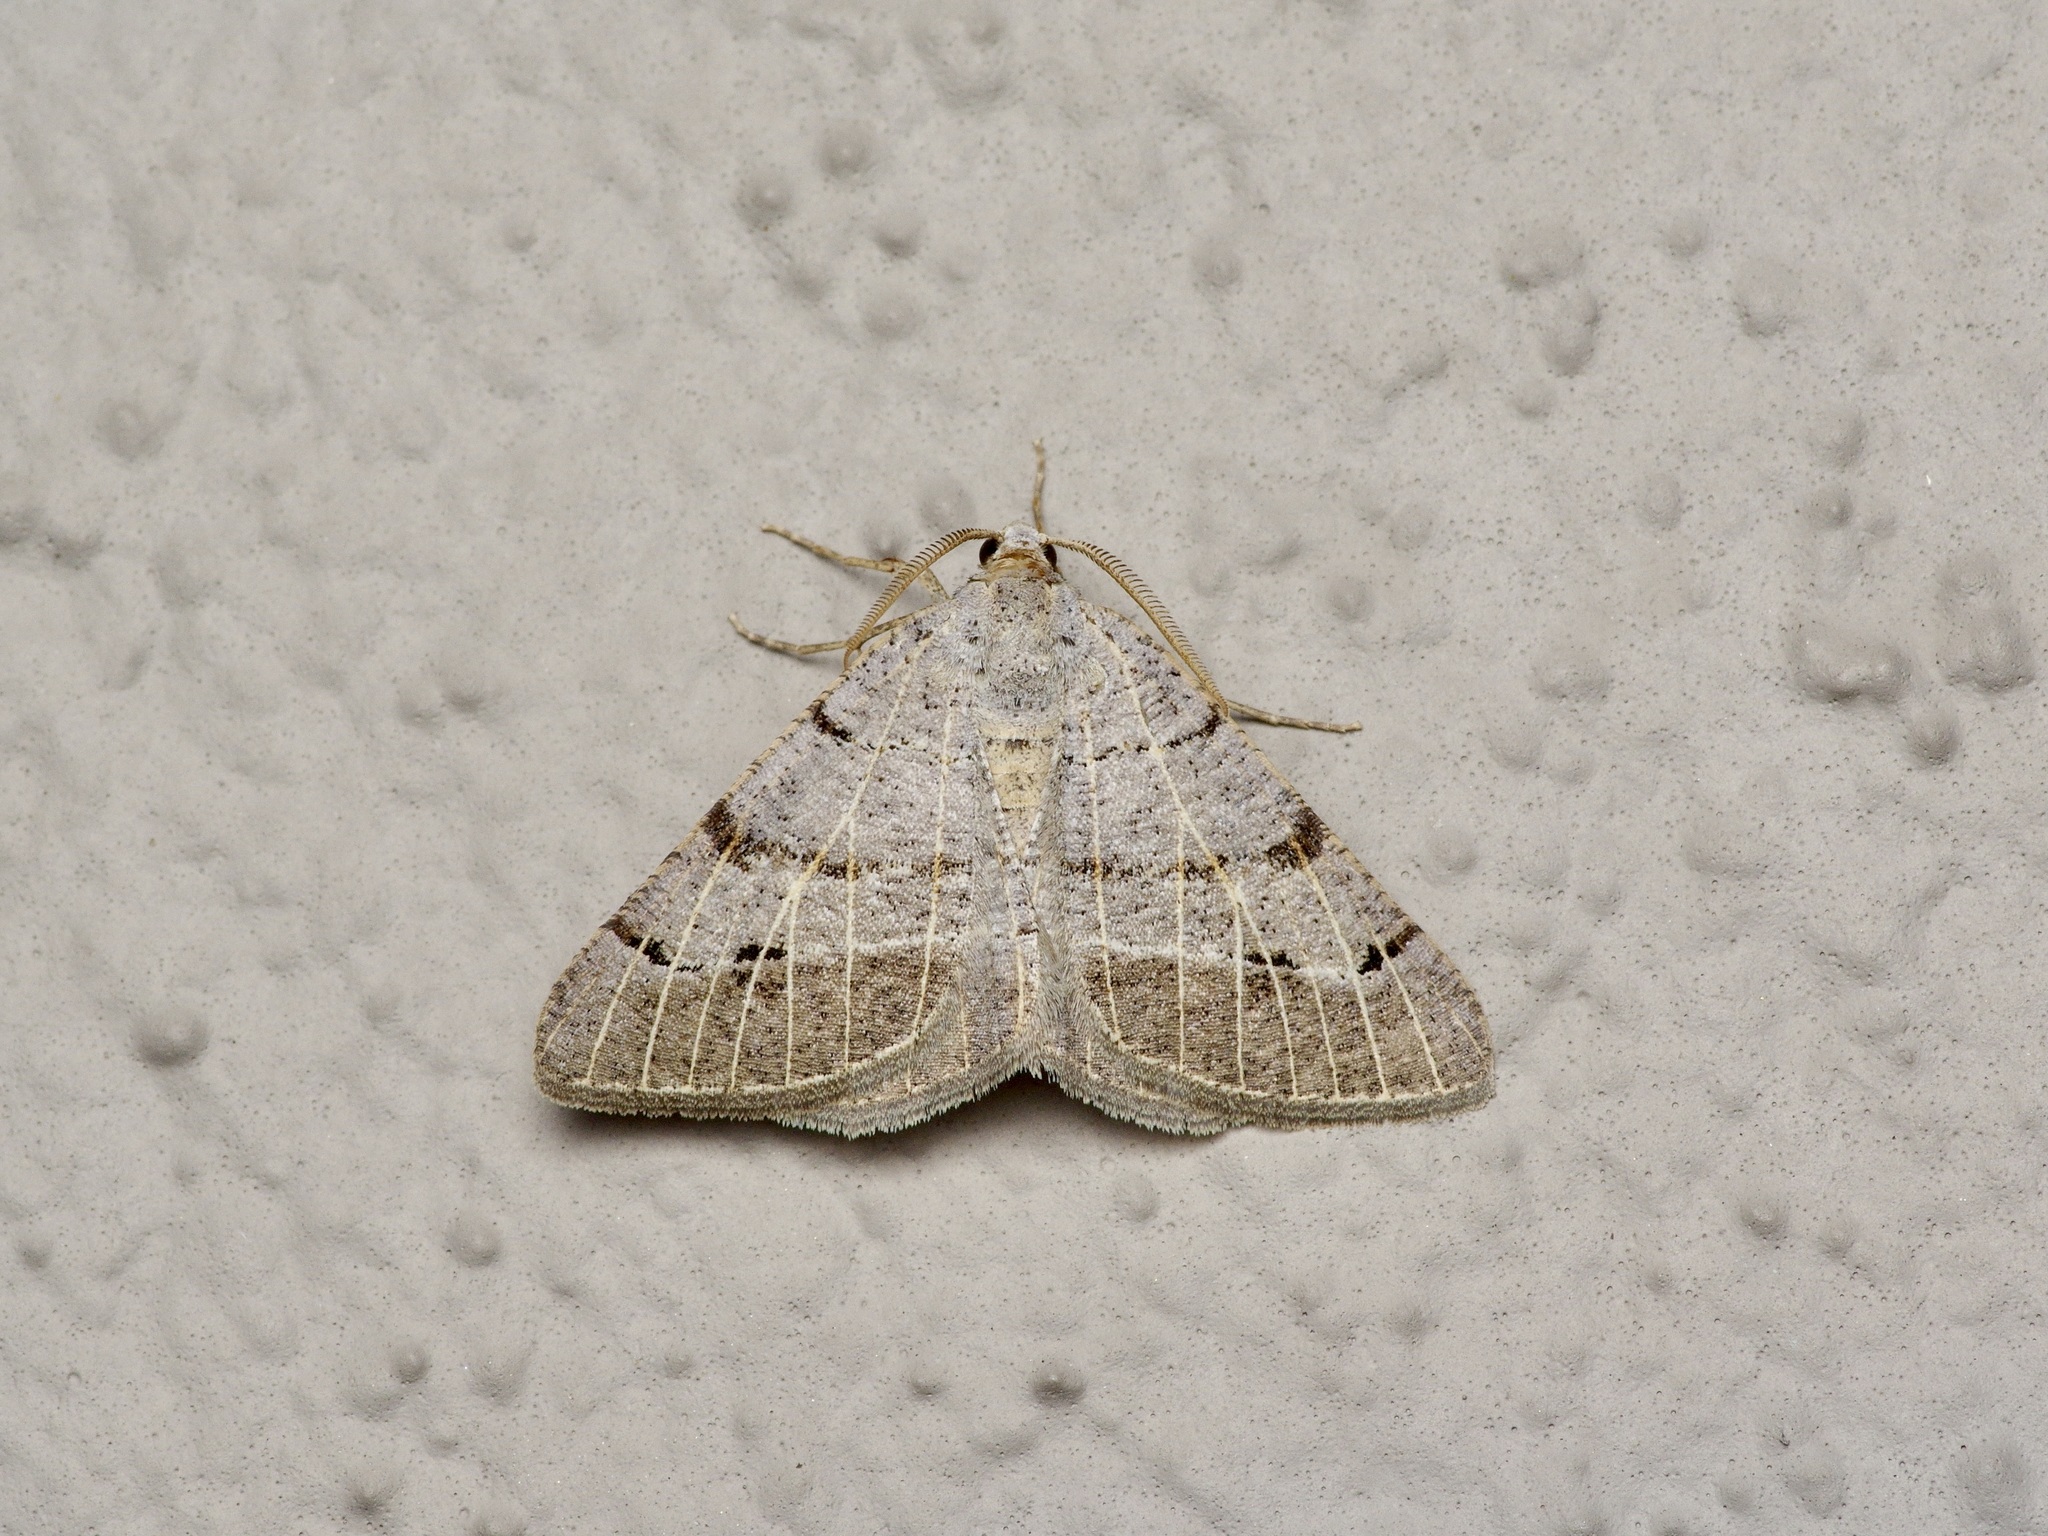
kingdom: Animalia
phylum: Arthropoda
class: Insecta
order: Lepidoptera
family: Geometridae
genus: Isturgia
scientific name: Isturgia dislocaria
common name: Pale-viened enconista
